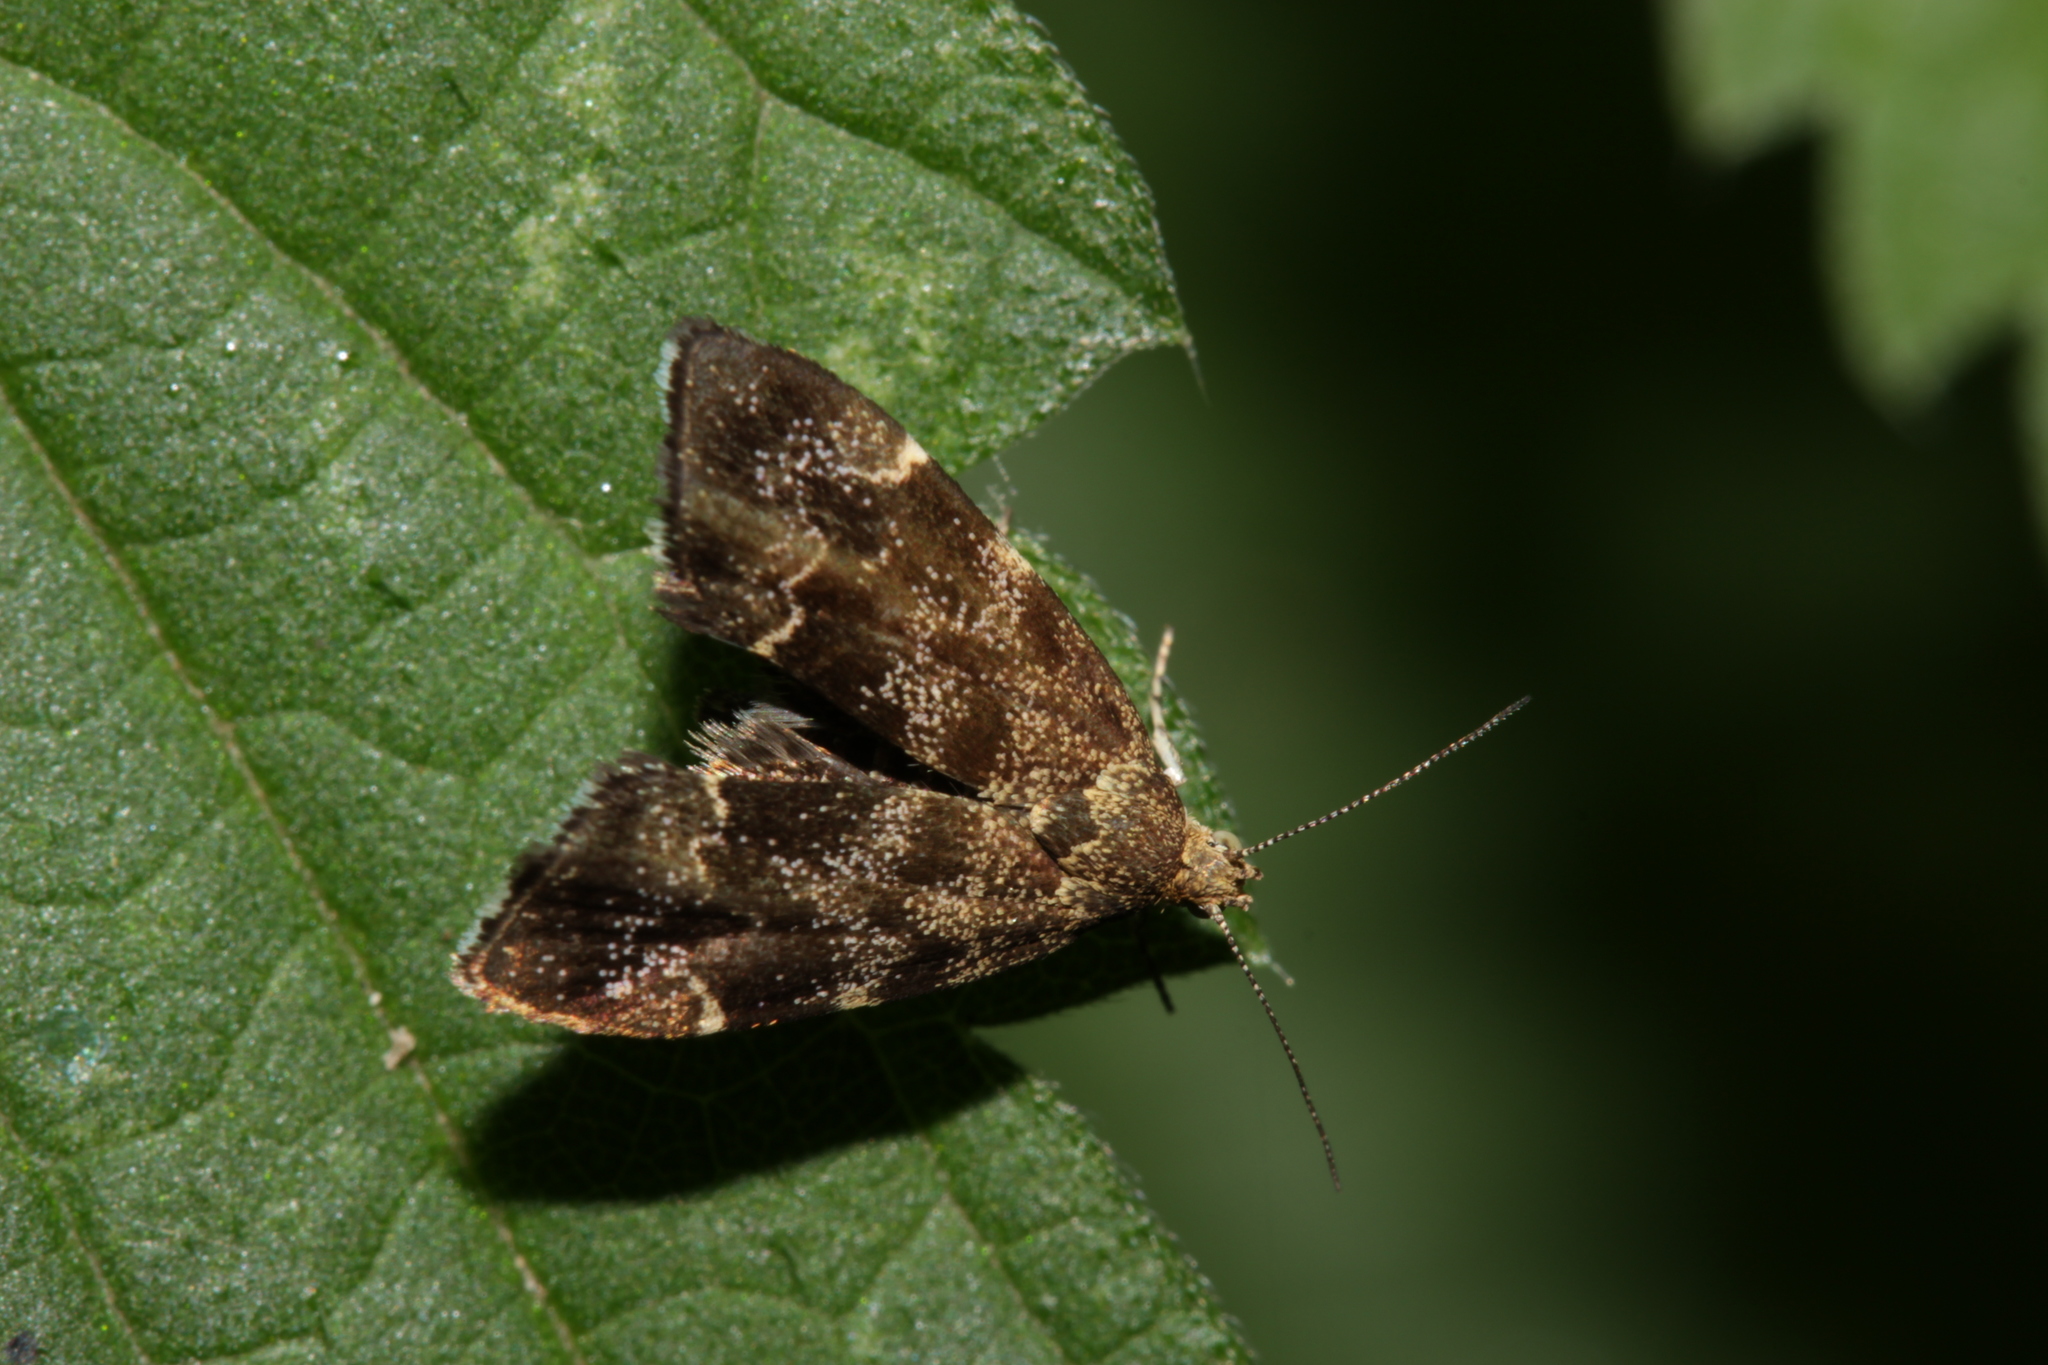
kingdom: Animalia
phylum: Arthropoda
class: Insecta
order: Lepidoptera
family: Choreutidae
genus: Anthophila
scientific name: Anthophila fabriciana
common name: Nettle-tap
